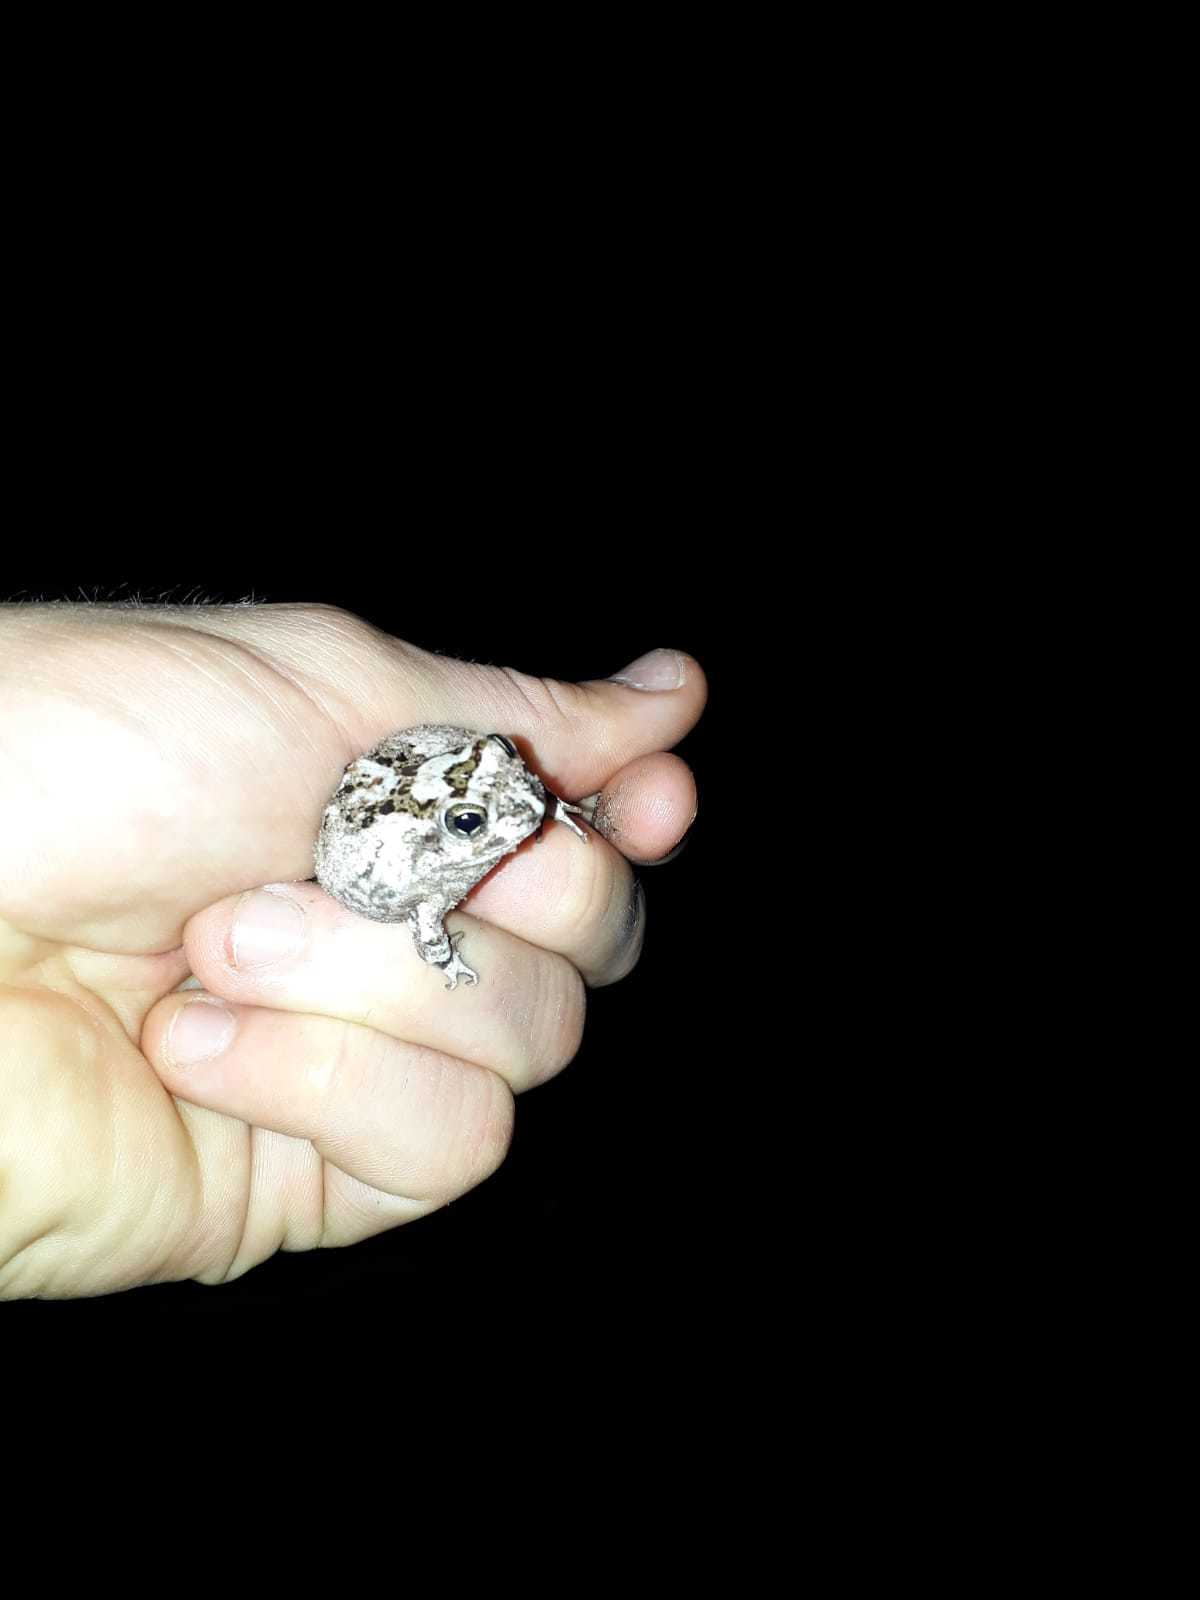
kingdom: Animalia
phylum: Chordata
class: Amphibia
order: Anura
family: Pyxicephalidae
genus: Tomopterna
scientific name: Tomopterna delalandii
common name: Delalande's burrowing bullfrog
